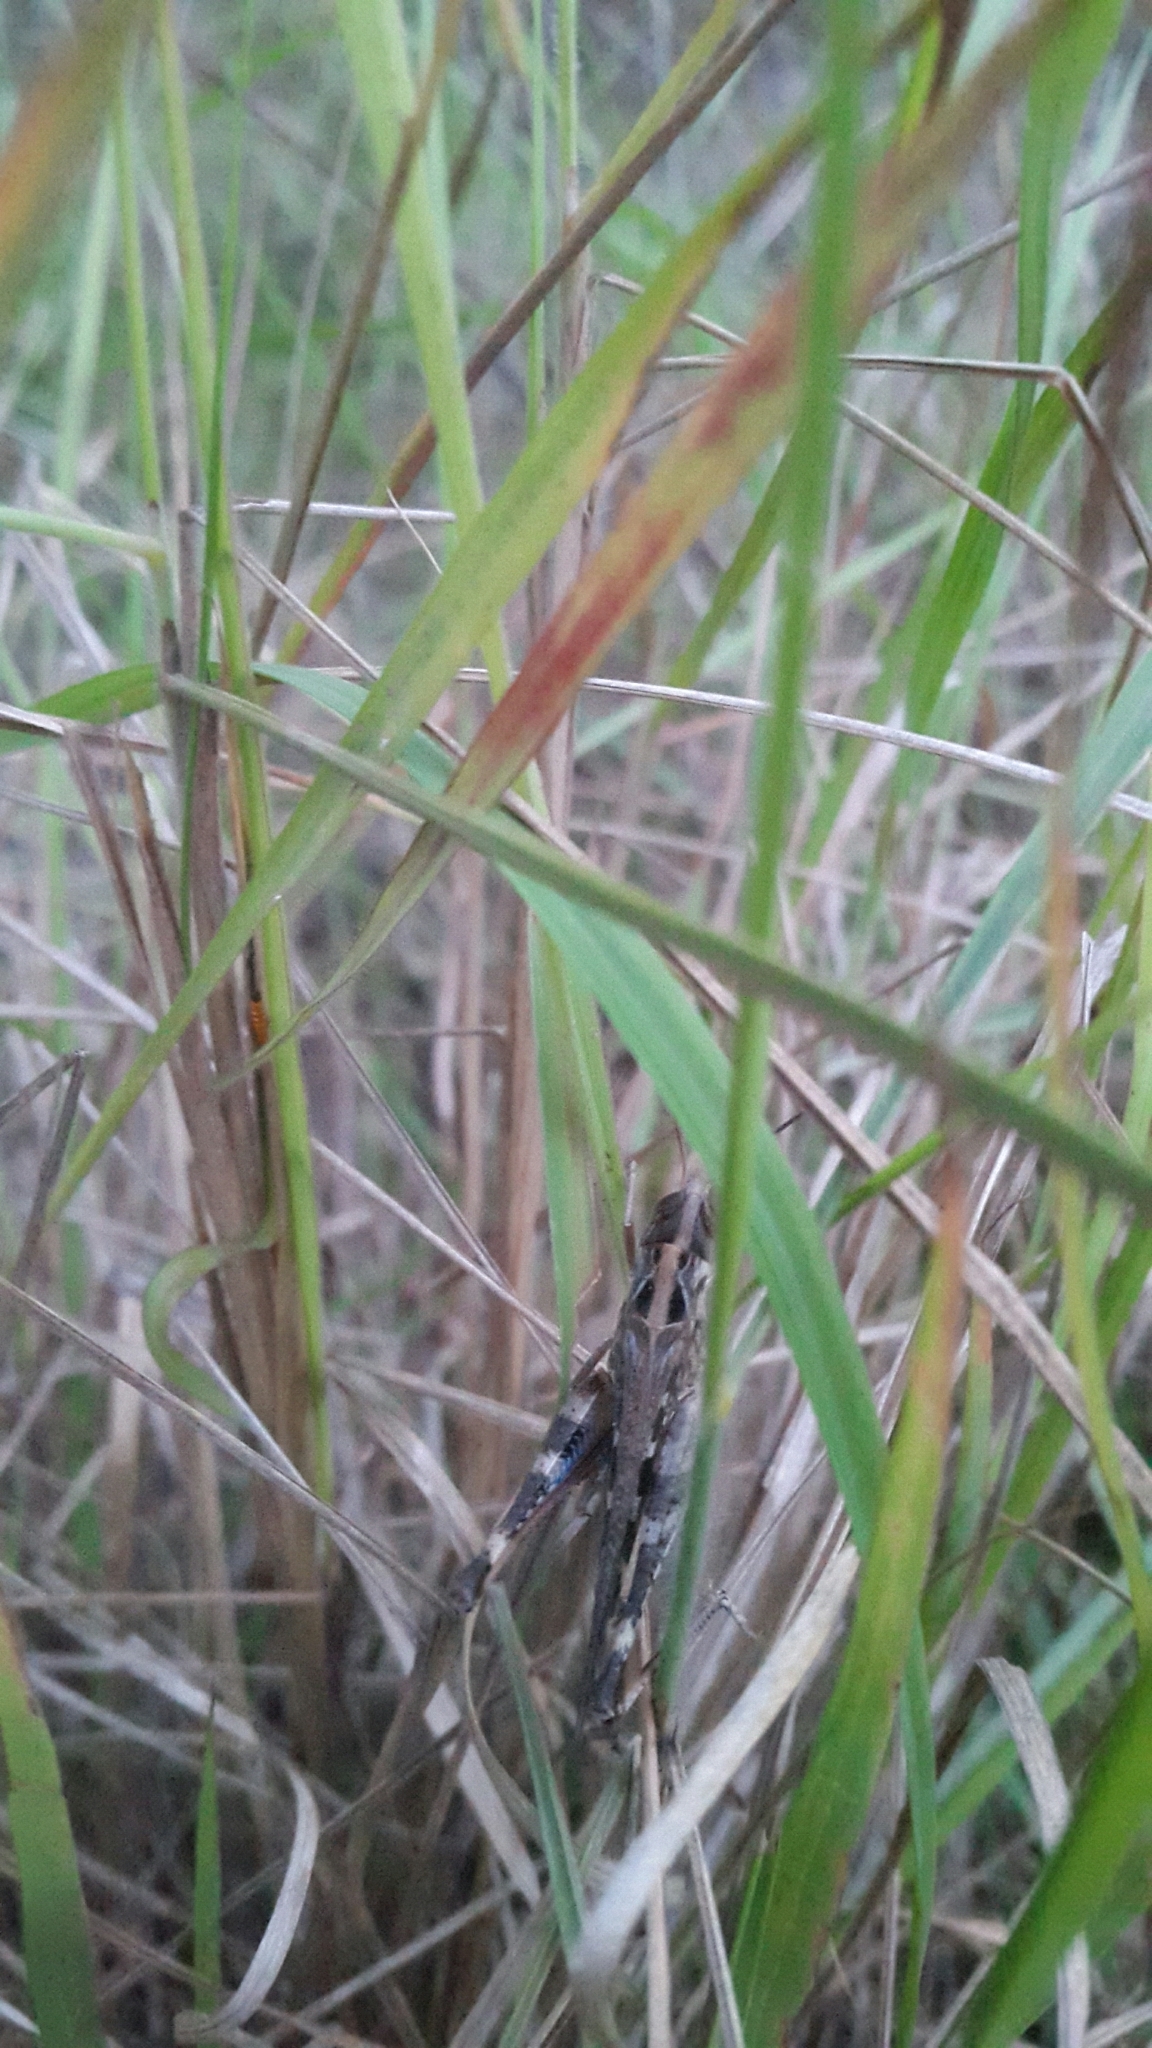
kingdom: Animalia
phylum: Arthropoda
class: Insecta
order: Orthoptera
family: Acrididae
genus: Rhammatocerus
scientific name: Rhammatocerus viatorius
